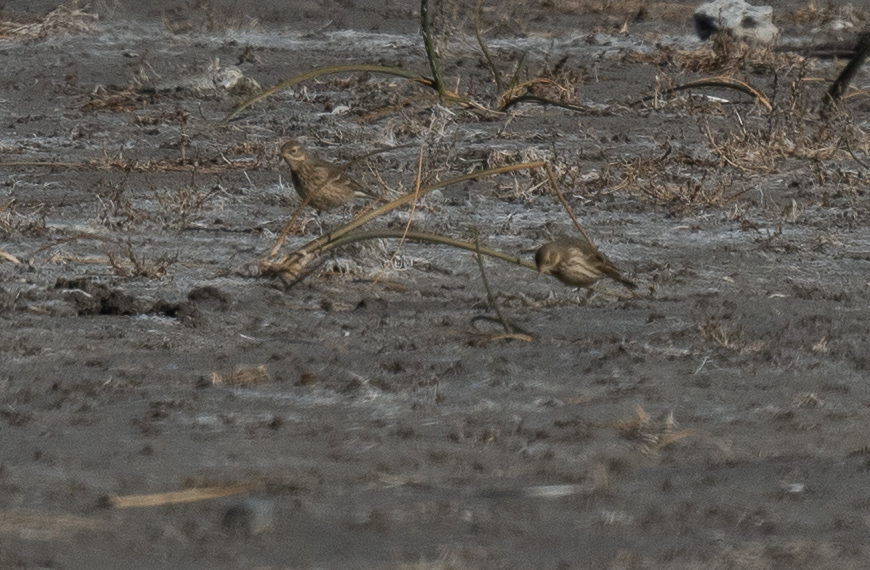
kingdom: Animalia
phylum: Chordata
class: Aves
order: Passeriformes
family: Motacillidae
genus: Anthus
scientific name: Anthus rubescens
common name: Buff-bellied pipit
